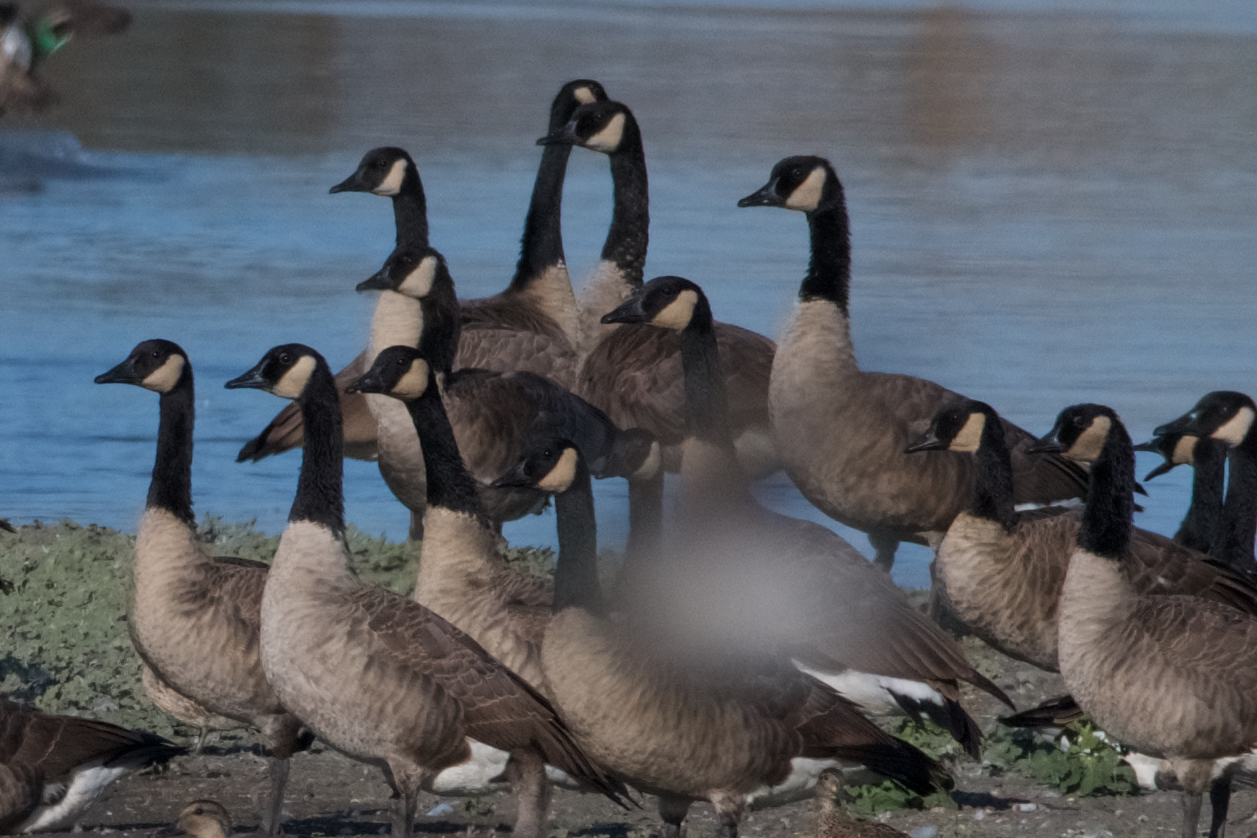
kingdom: Animalia
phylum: Chordata
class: Aves
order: Anseriformes
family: Anatidae
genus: Branta
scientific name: Branta canadensis
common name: Canada goose
